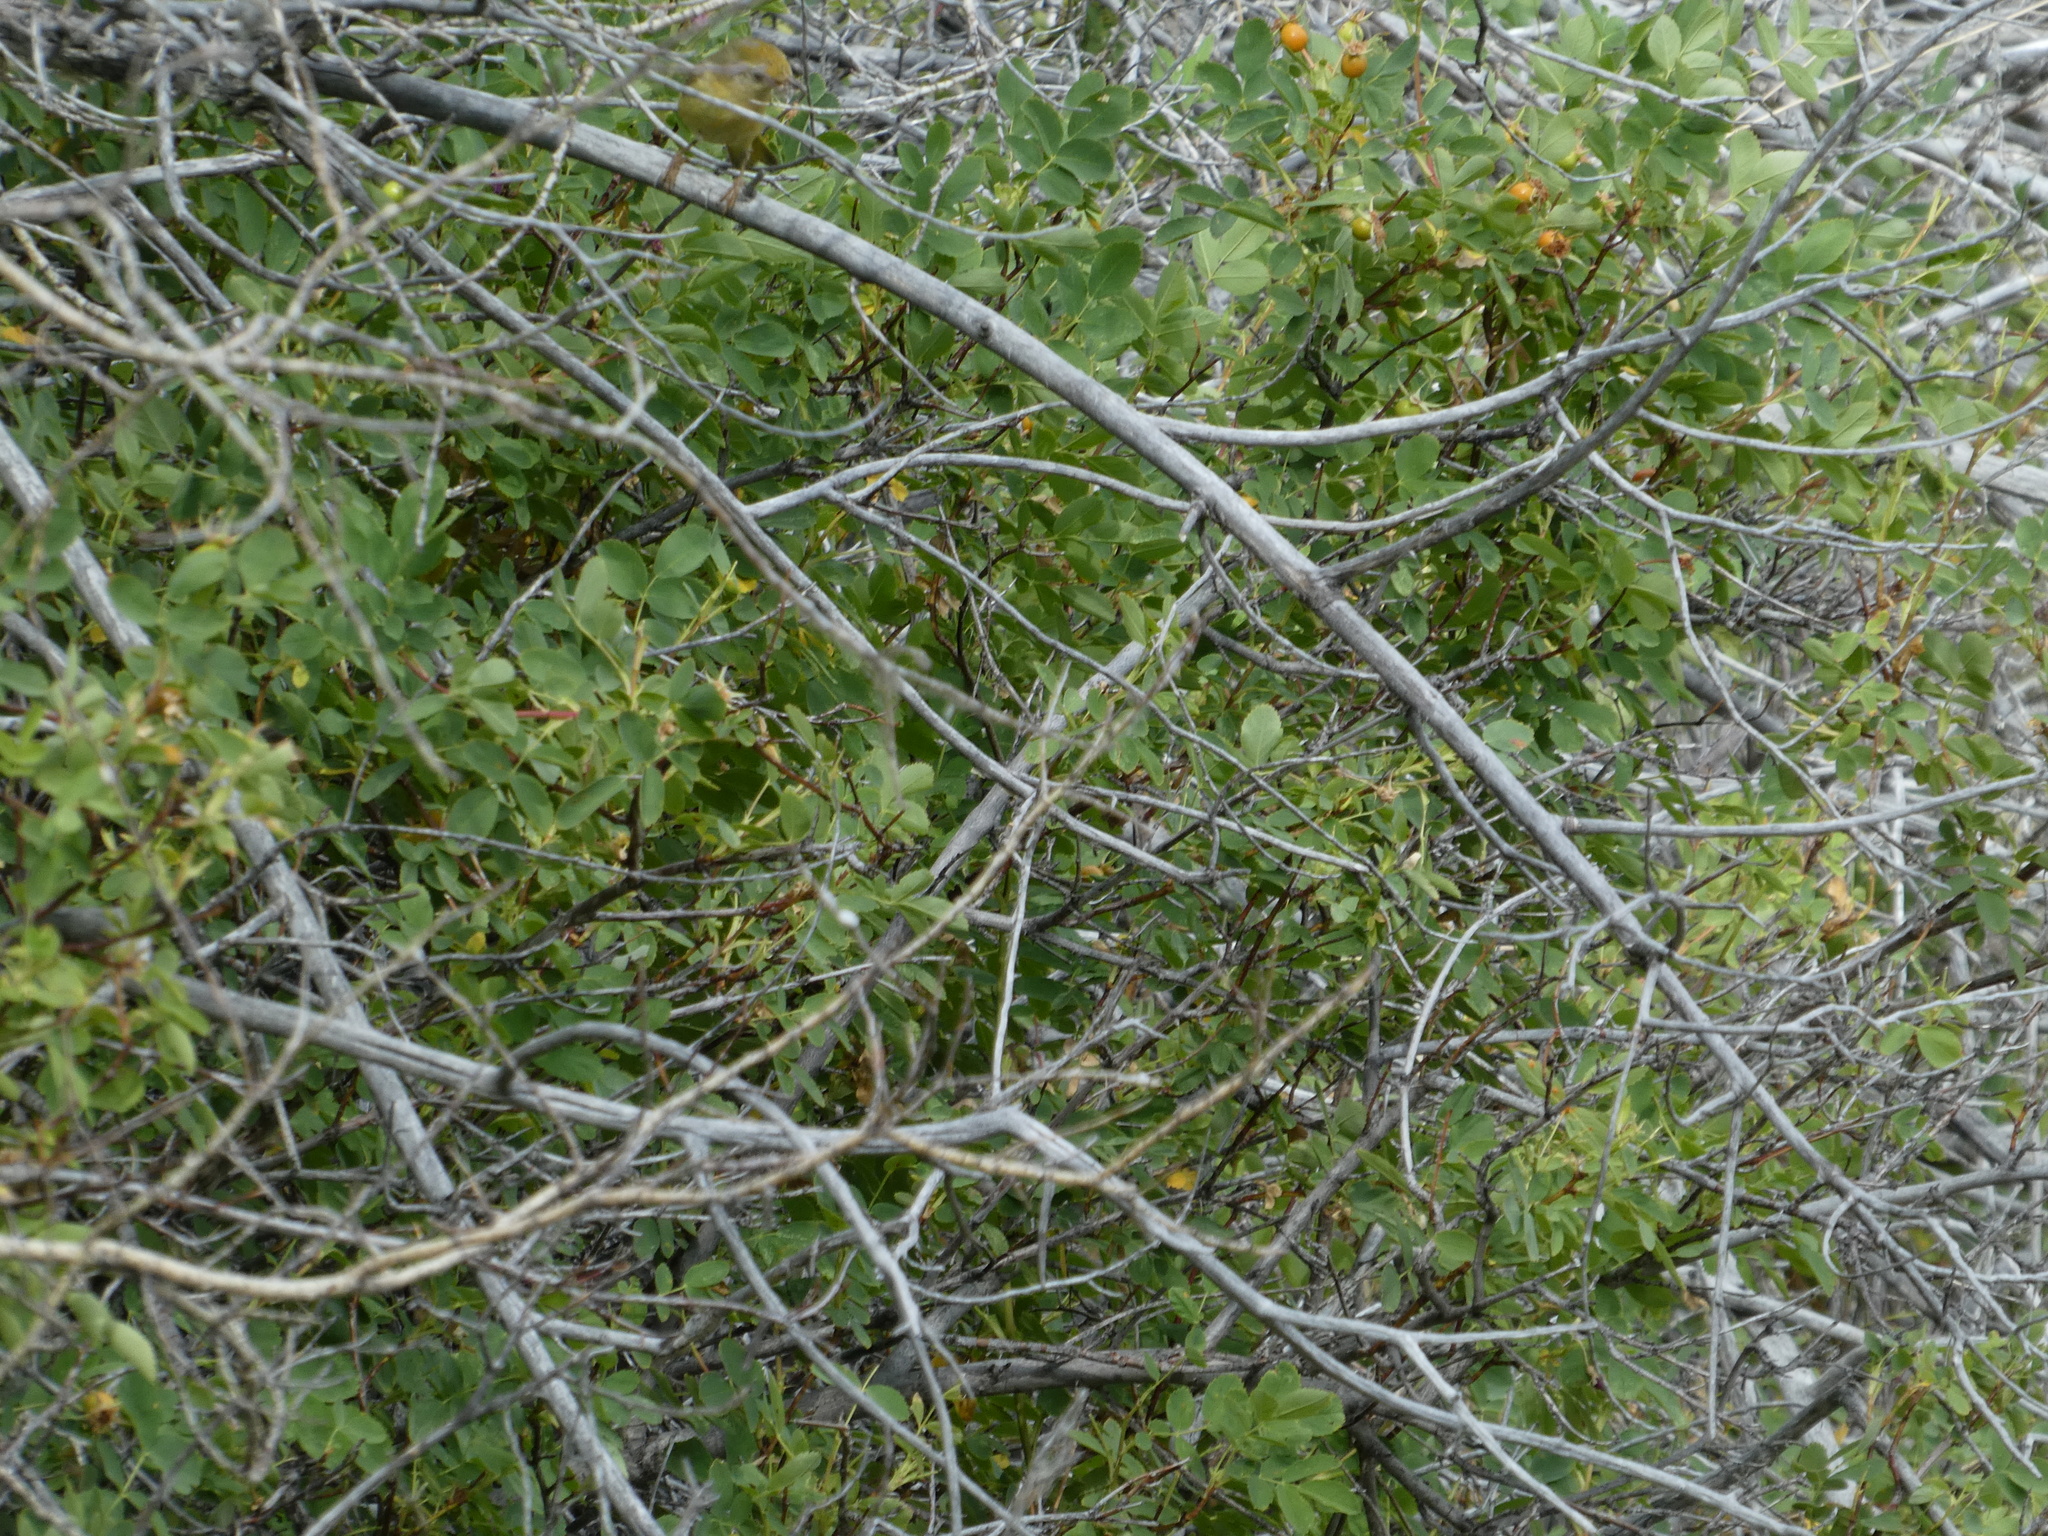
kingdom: Animalia
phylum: Chordata
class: Aves
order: Passeriformes
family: Parulidae
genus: Setophaga
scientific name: Setophaga petechia
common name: Yellow warbler
